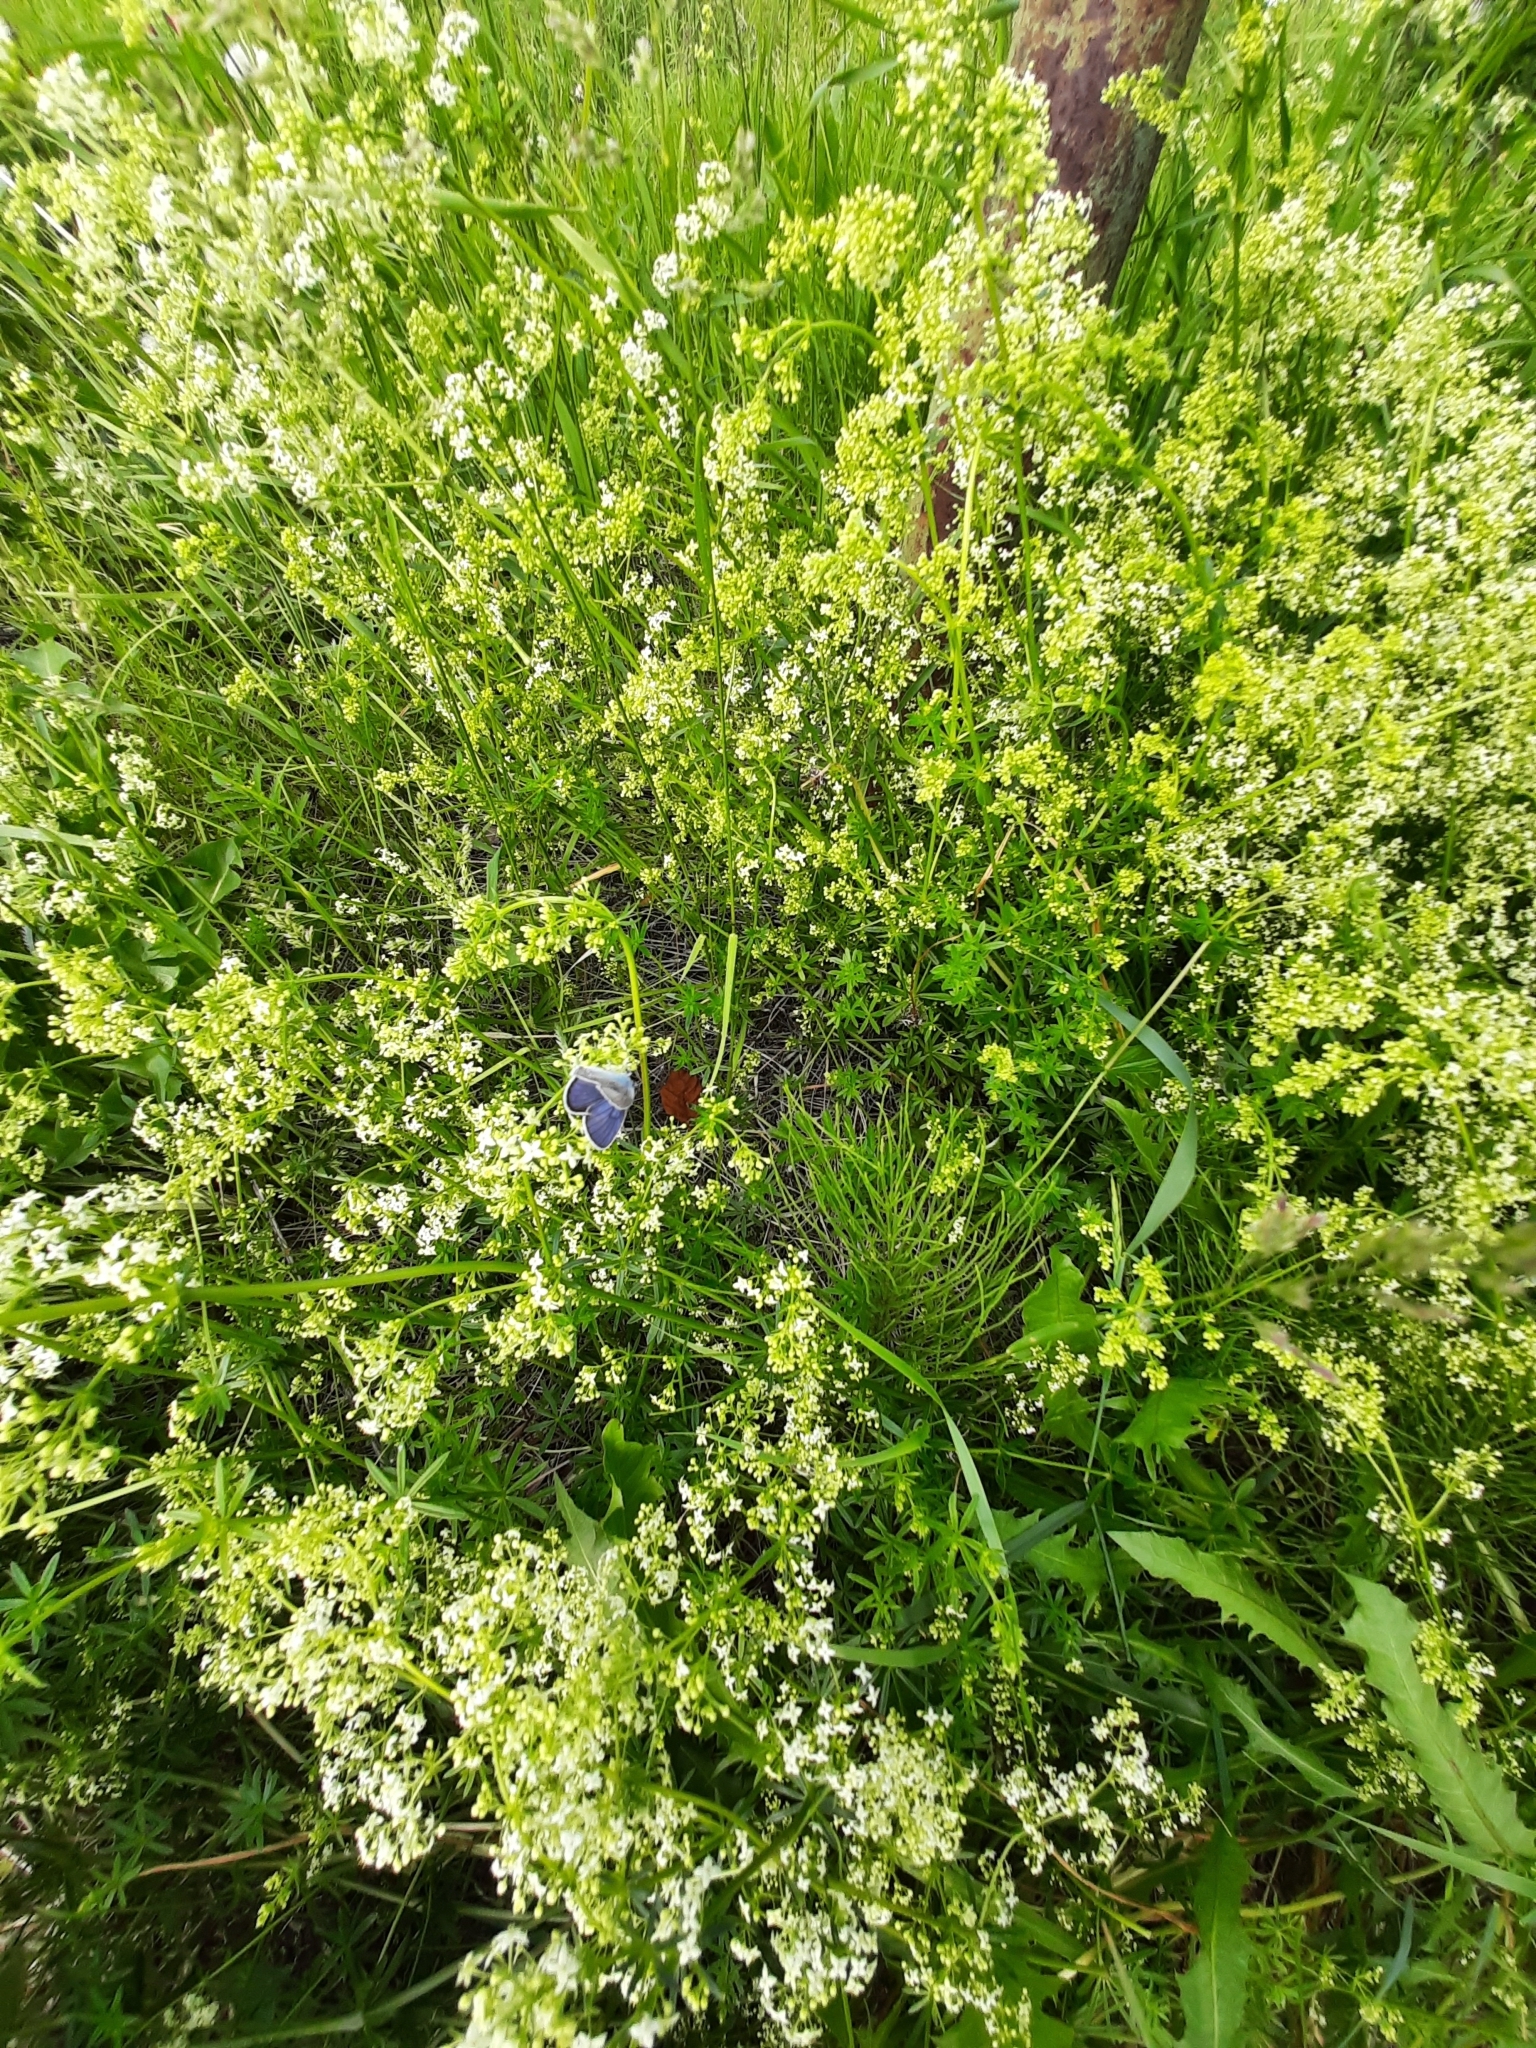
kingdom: Animalia
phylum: Arthropoda
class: Insecta
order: Lepidoptera
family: Lycaenidae
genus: Cyaniris
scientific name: Cyaniris semiargus
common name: Mazarine blue
